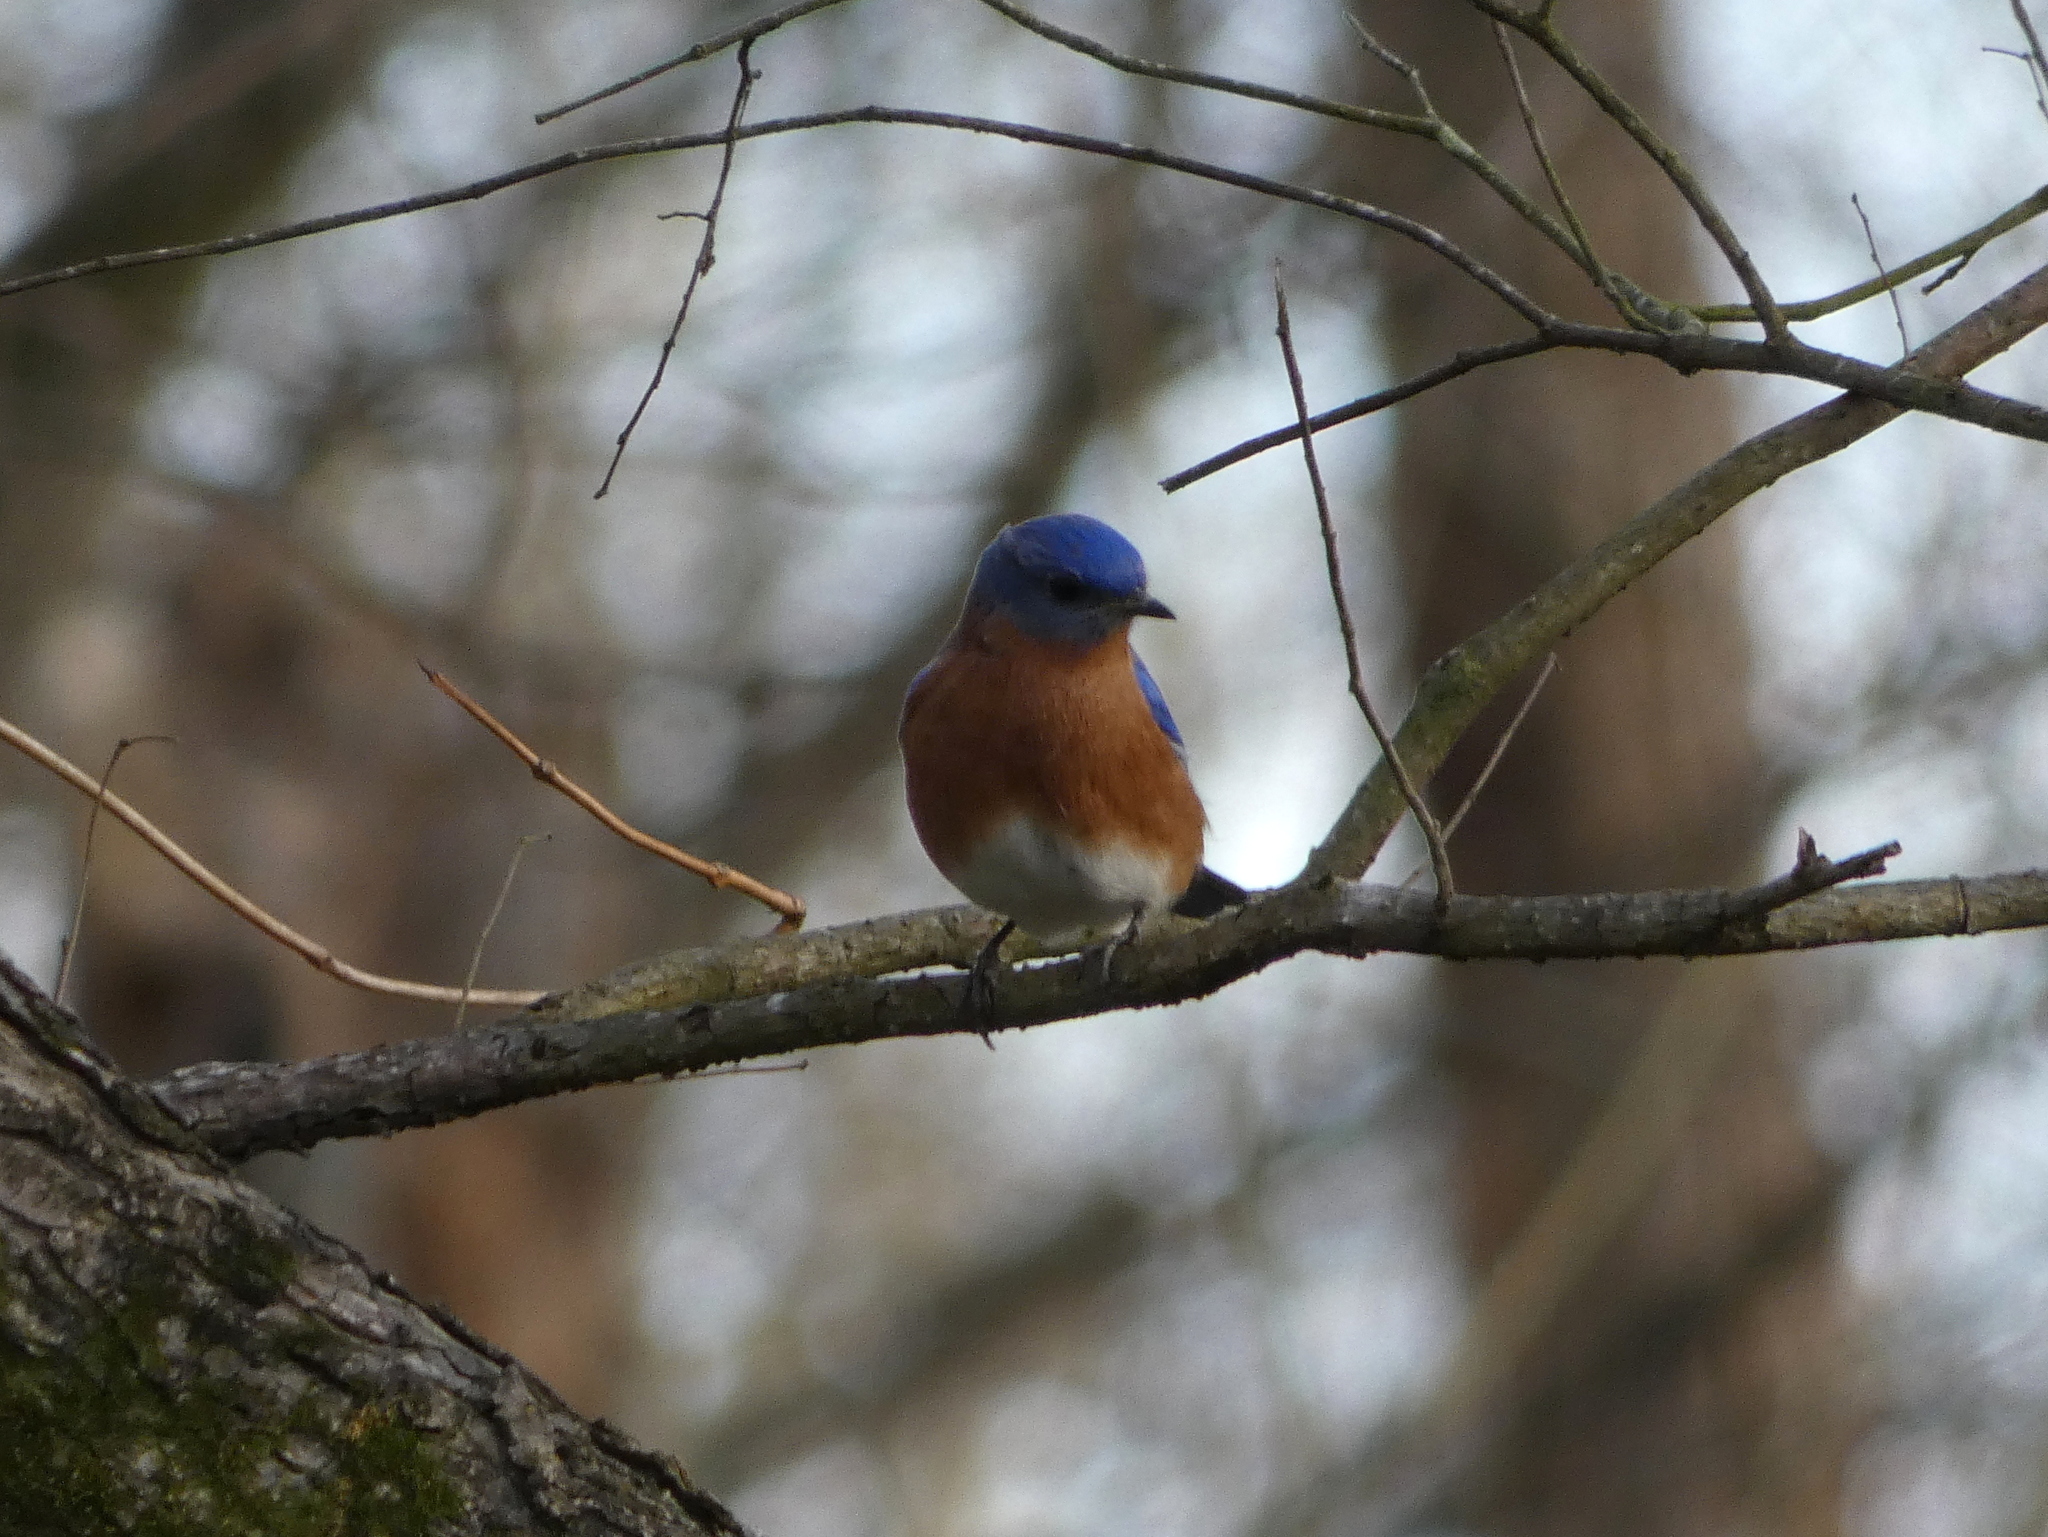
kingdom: Animalia
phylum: Chordata
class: Aves
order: Passeriformes
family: Turdidae
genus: Sialia
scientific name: Sialia sialis
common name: Eastern bluebird
